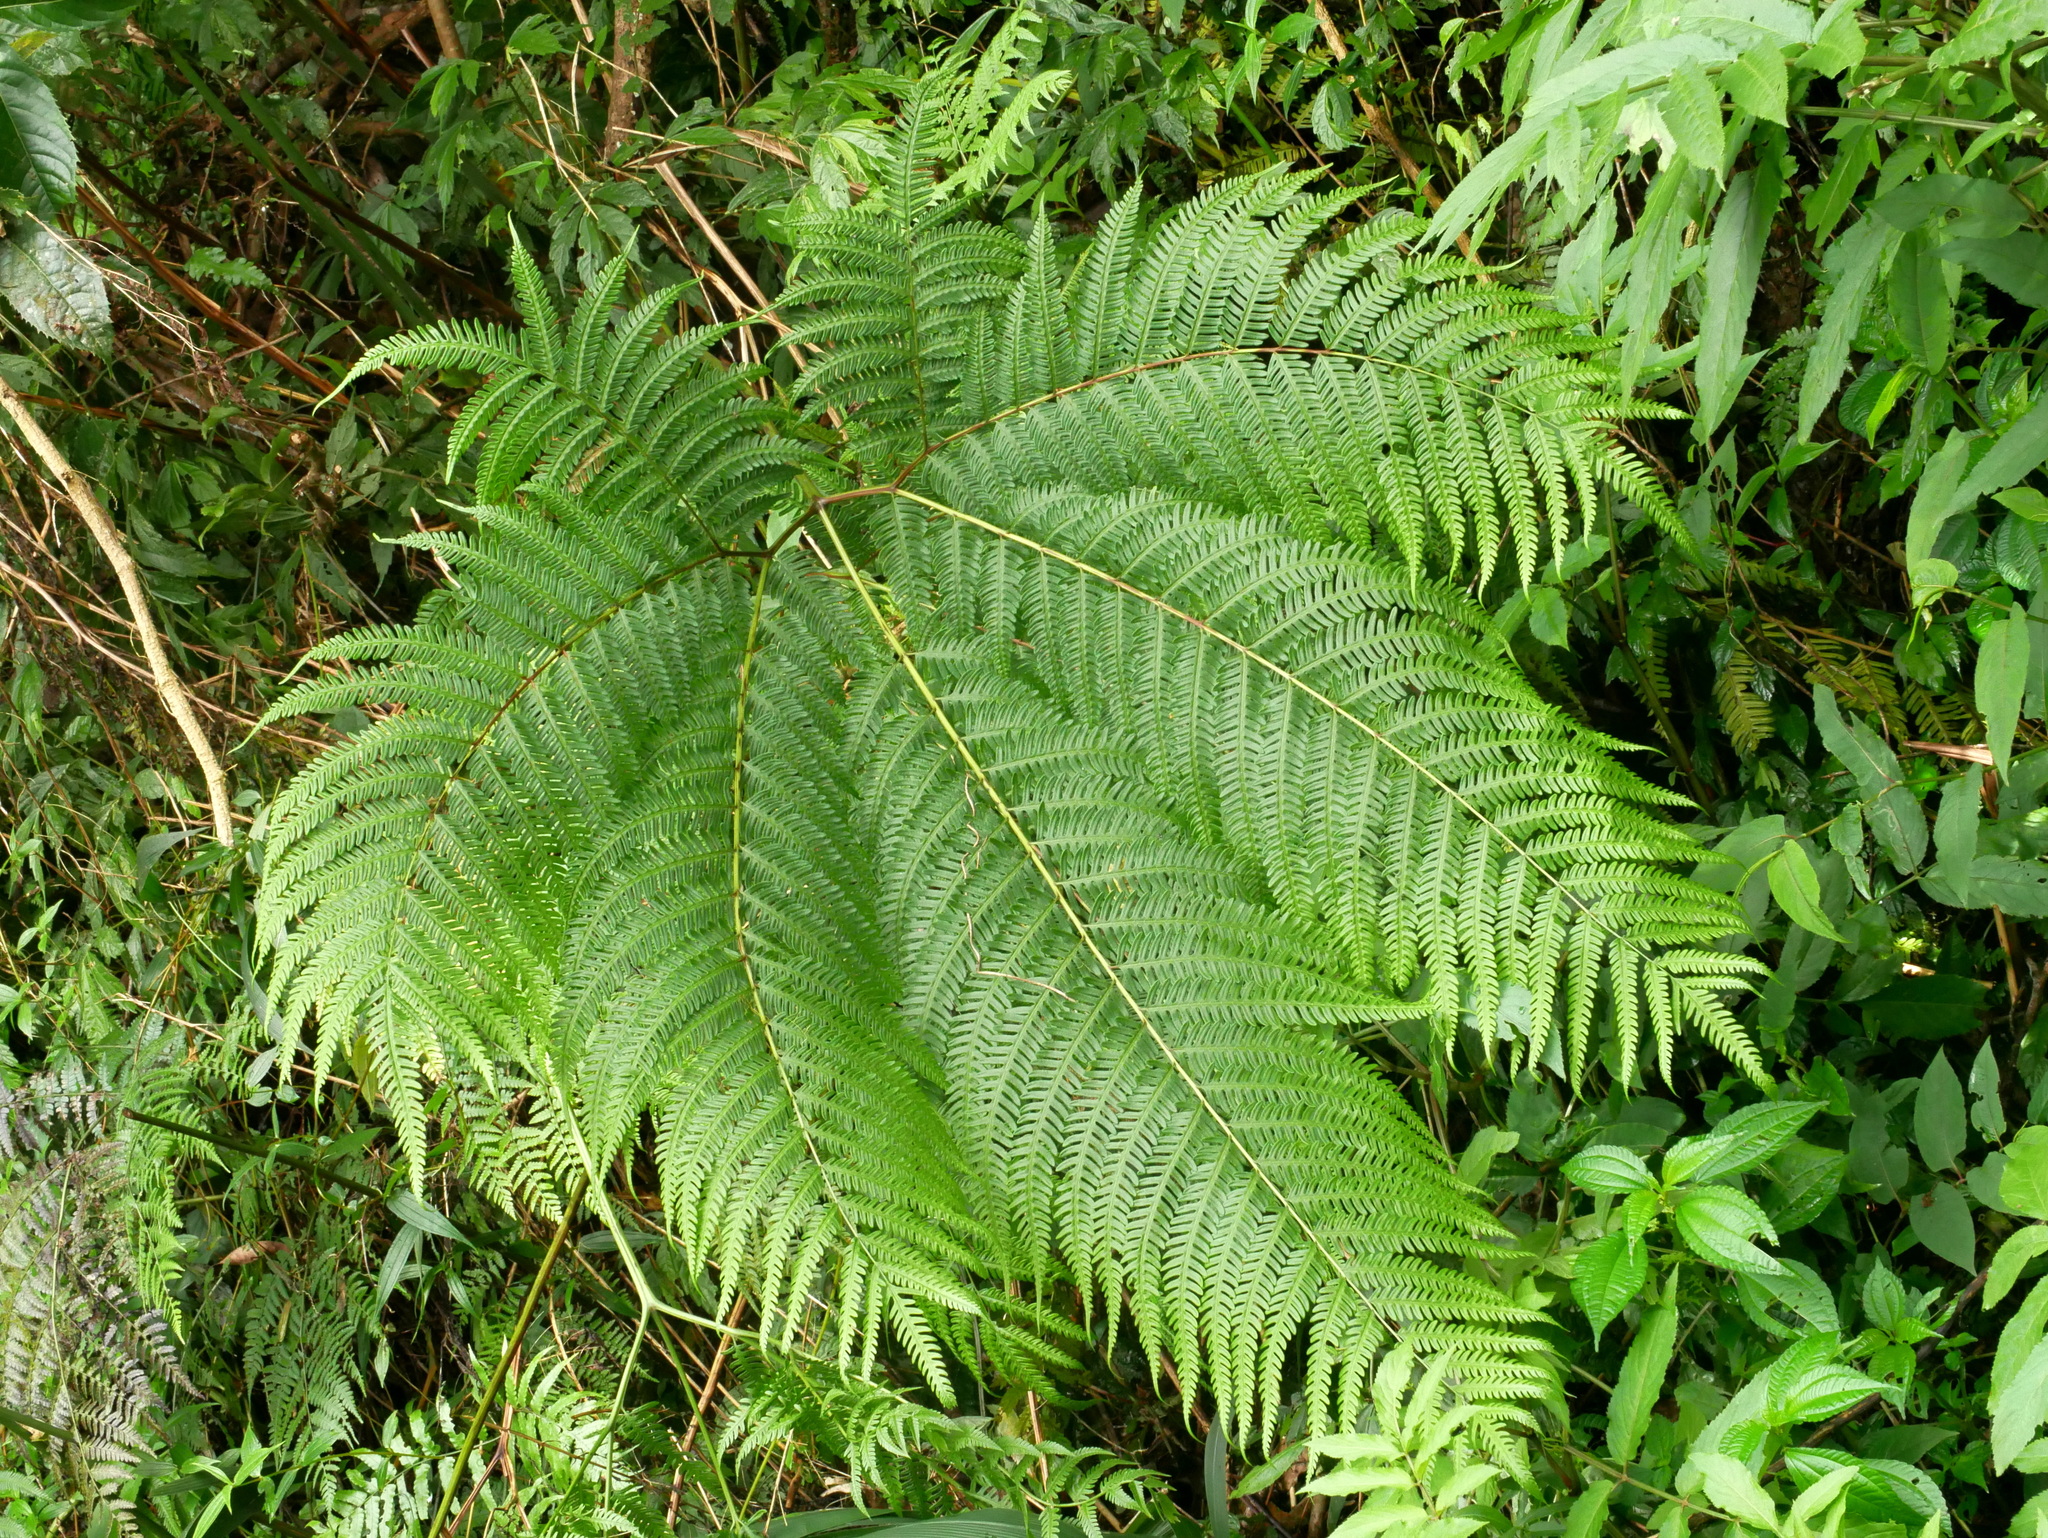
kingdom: Plantae
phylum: Tracheophyta
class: Polypodiopsida
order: Polypodiales
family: Pteridaceae
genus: Pteris
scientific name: Pteris wallichiana
